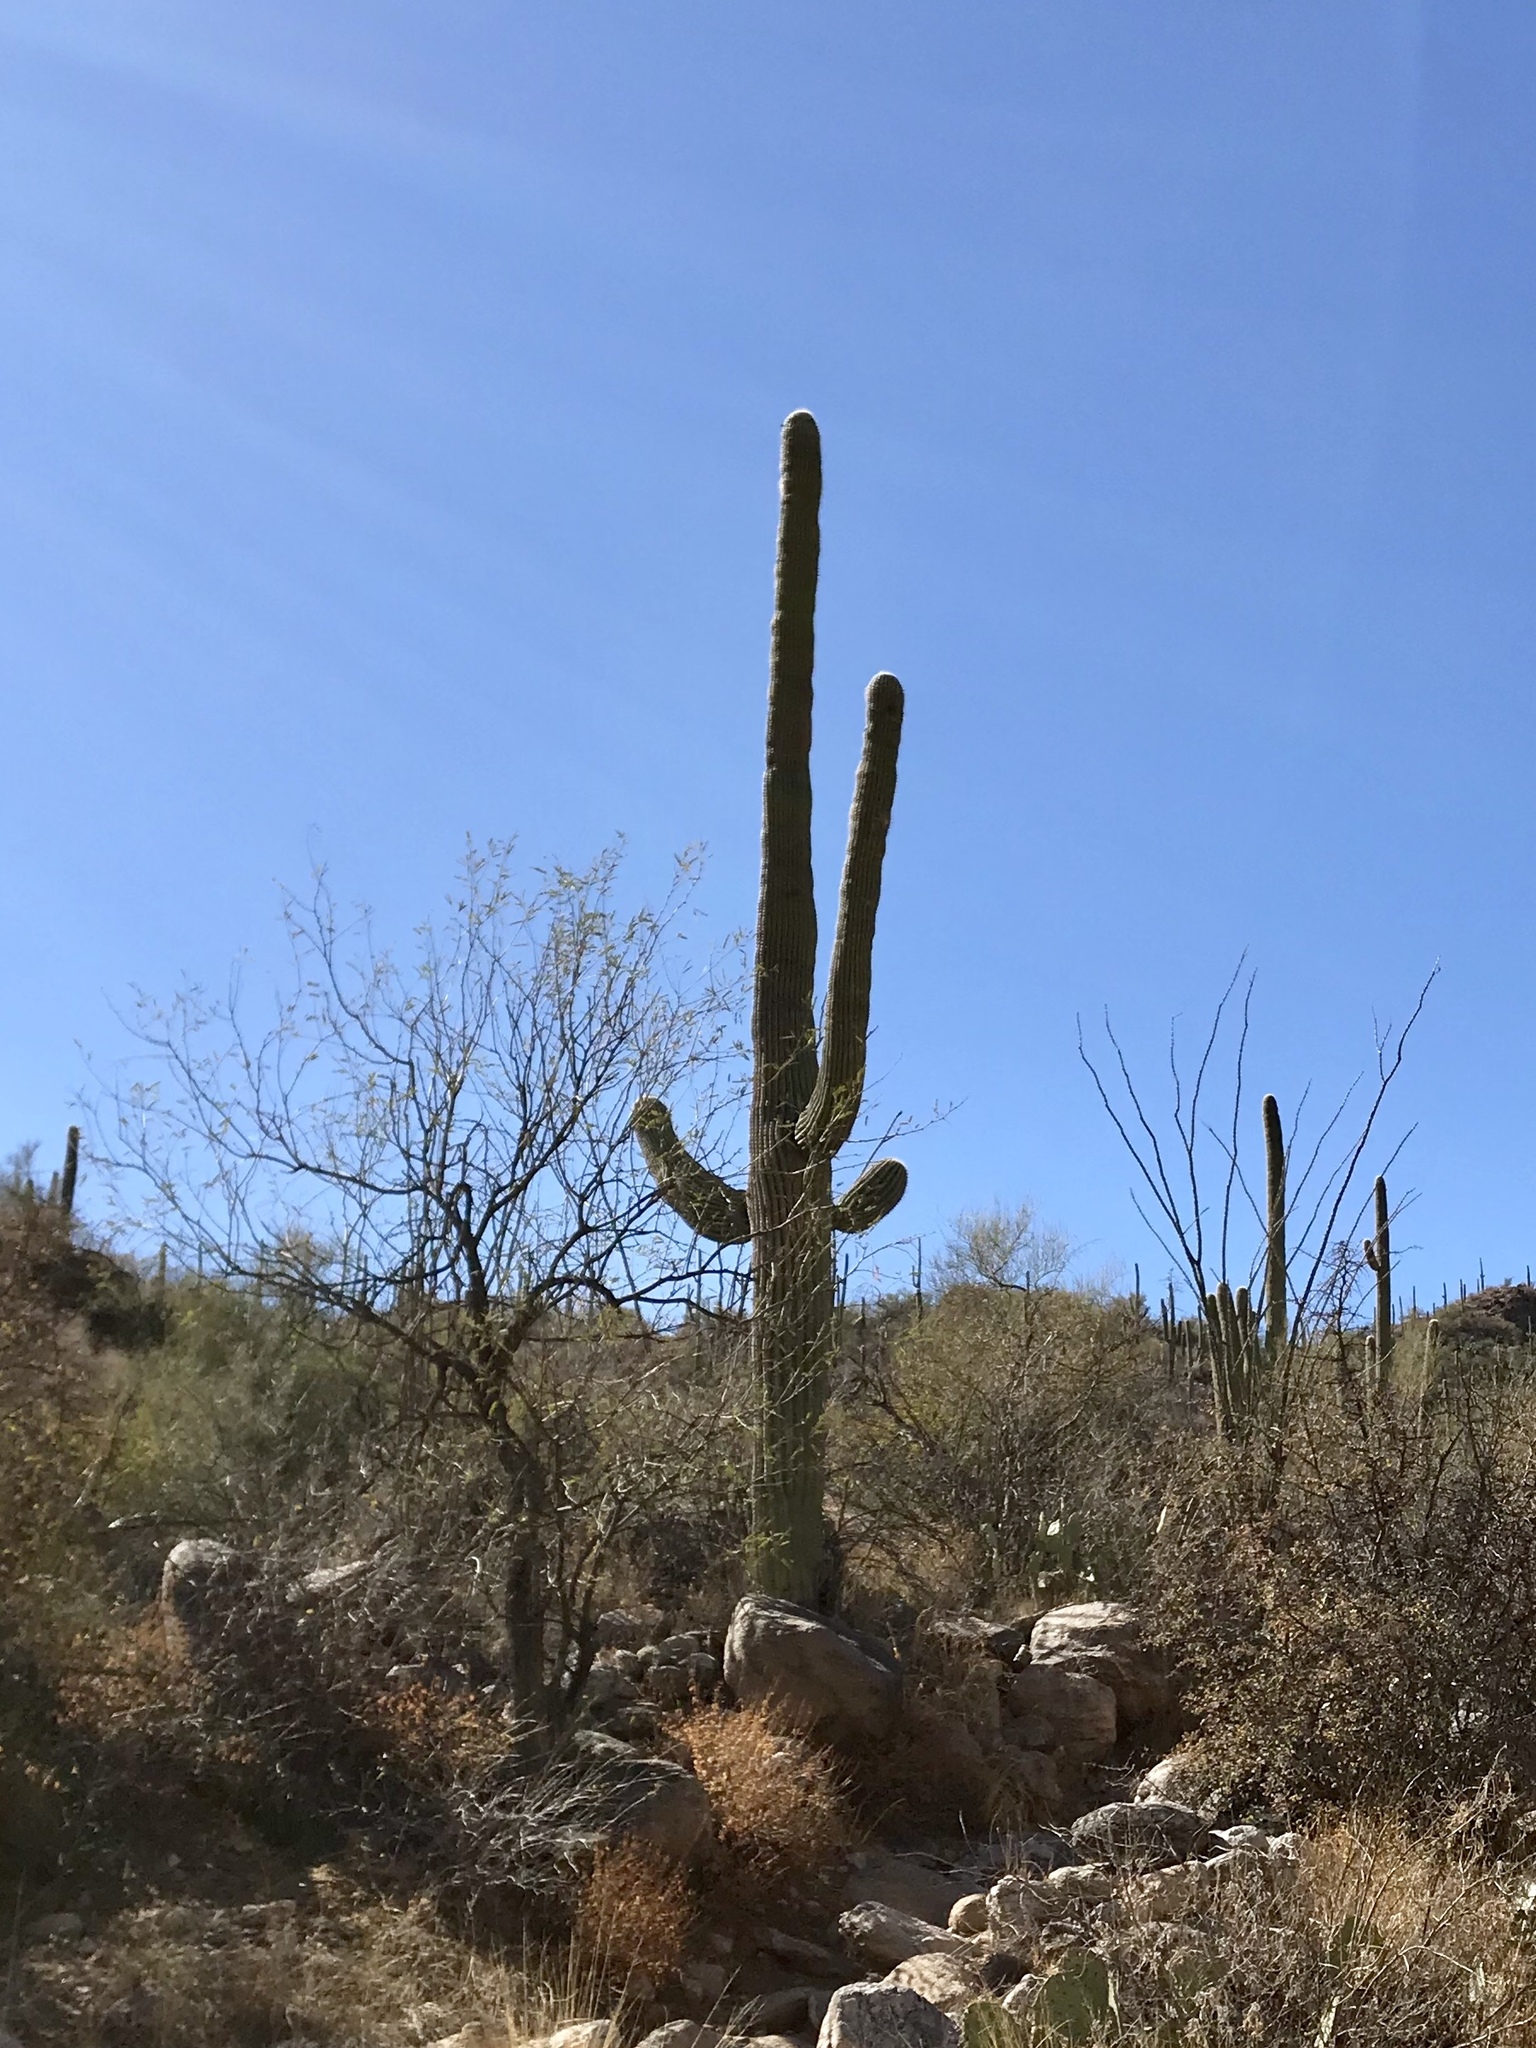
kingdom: Plantae
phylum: Tracheophyta
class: Magnoliopsida
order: Caryophyllales
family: Cactaceae
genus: Carnegiea
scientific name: Carnegiea gigantea
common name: Saguaro
